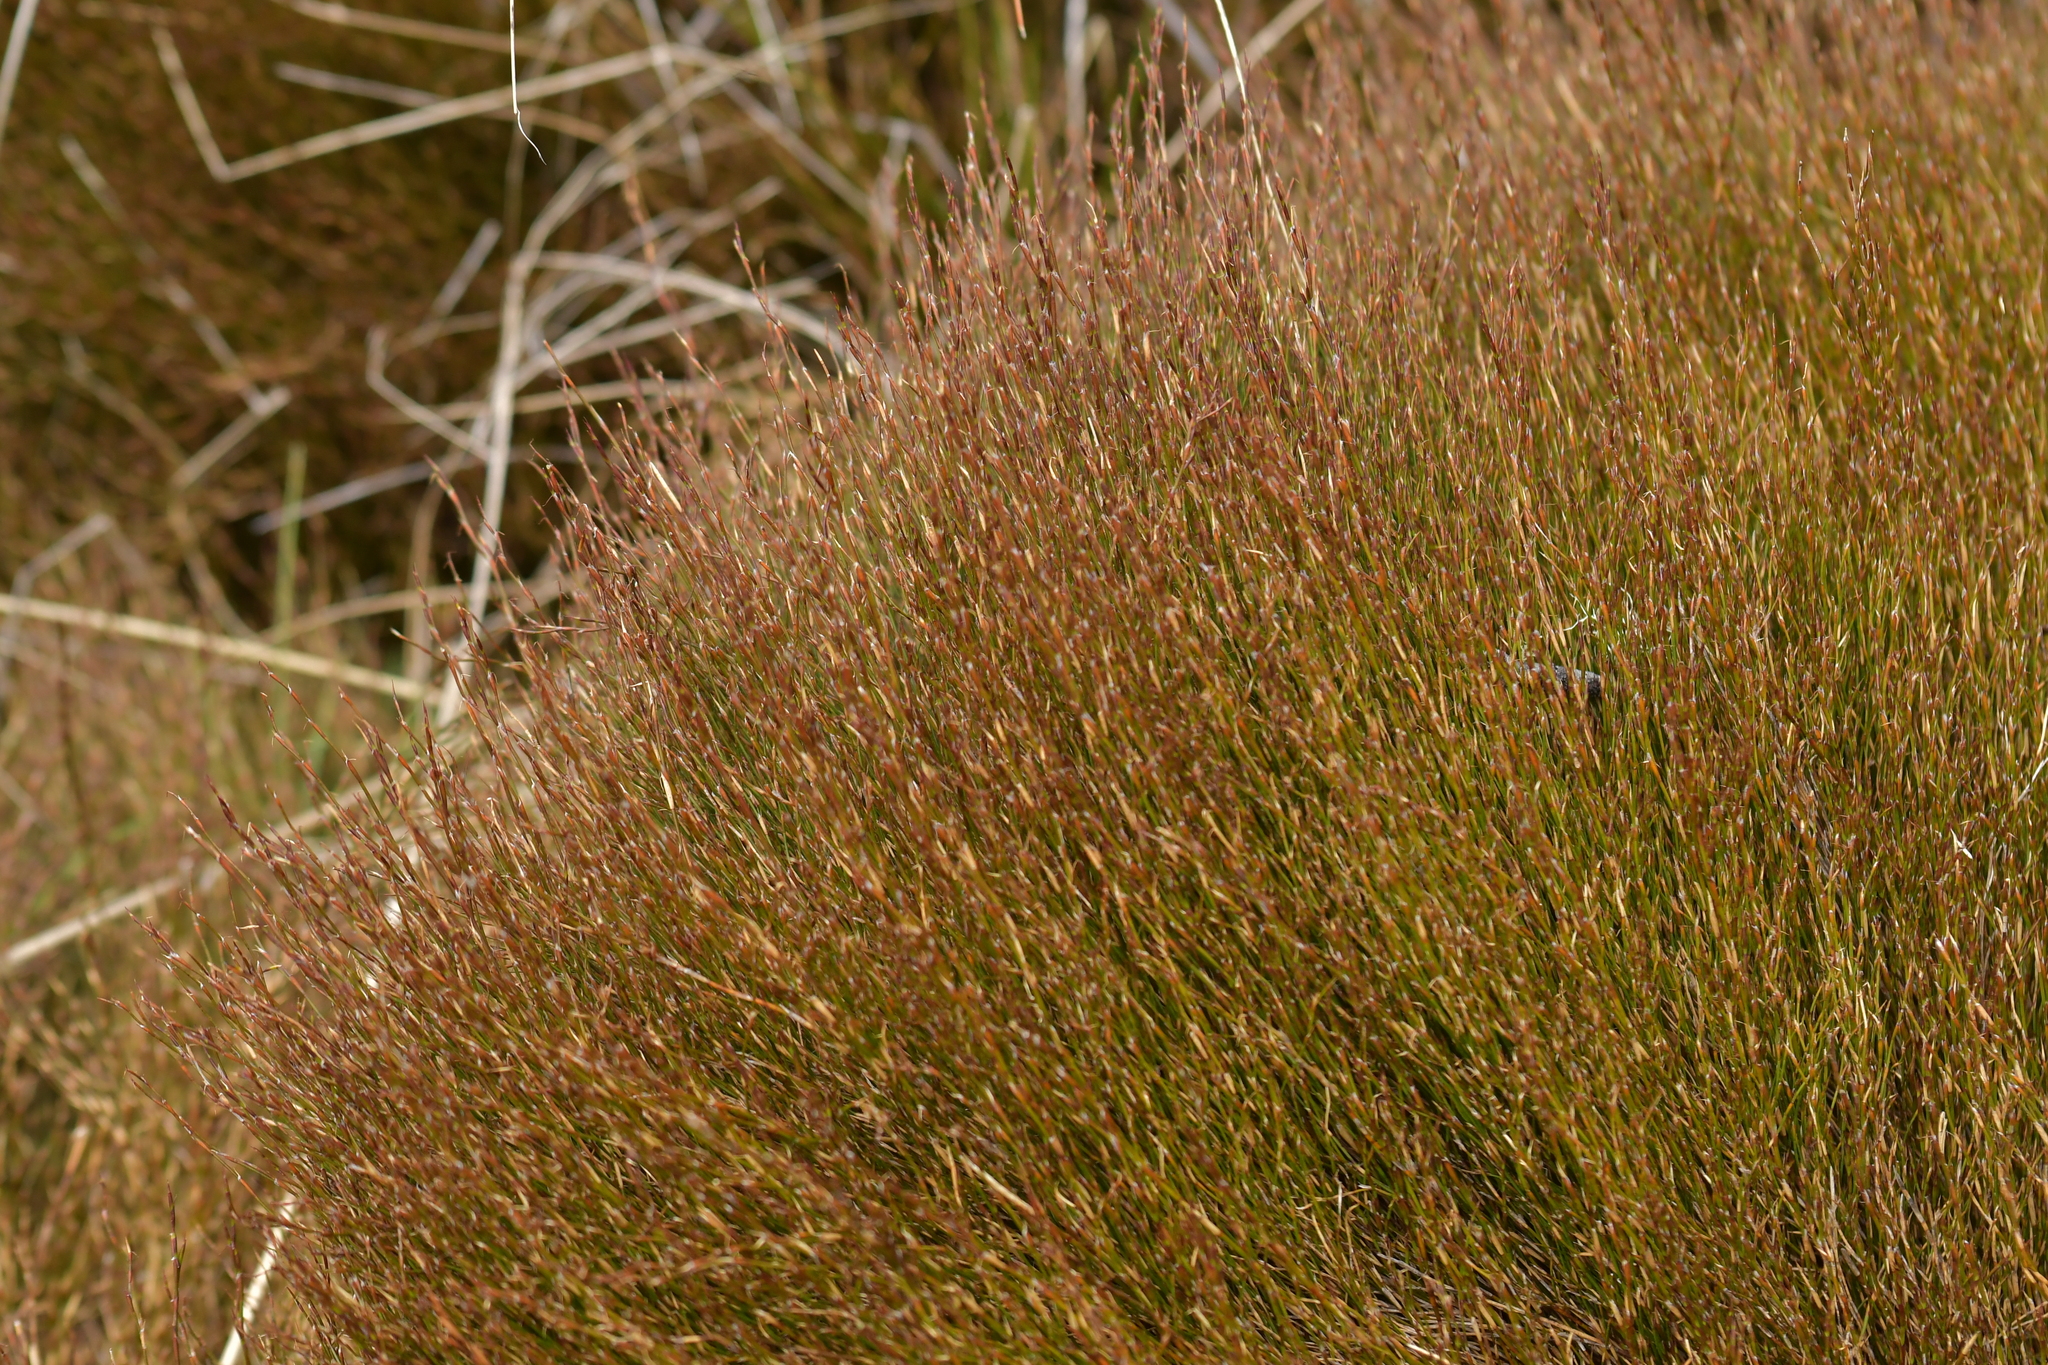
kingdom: Plantae
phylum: Tracheophyta
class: Liliopsida
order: Poales
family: Restionaceae
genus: Empodisma
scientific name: Empodisma minus
